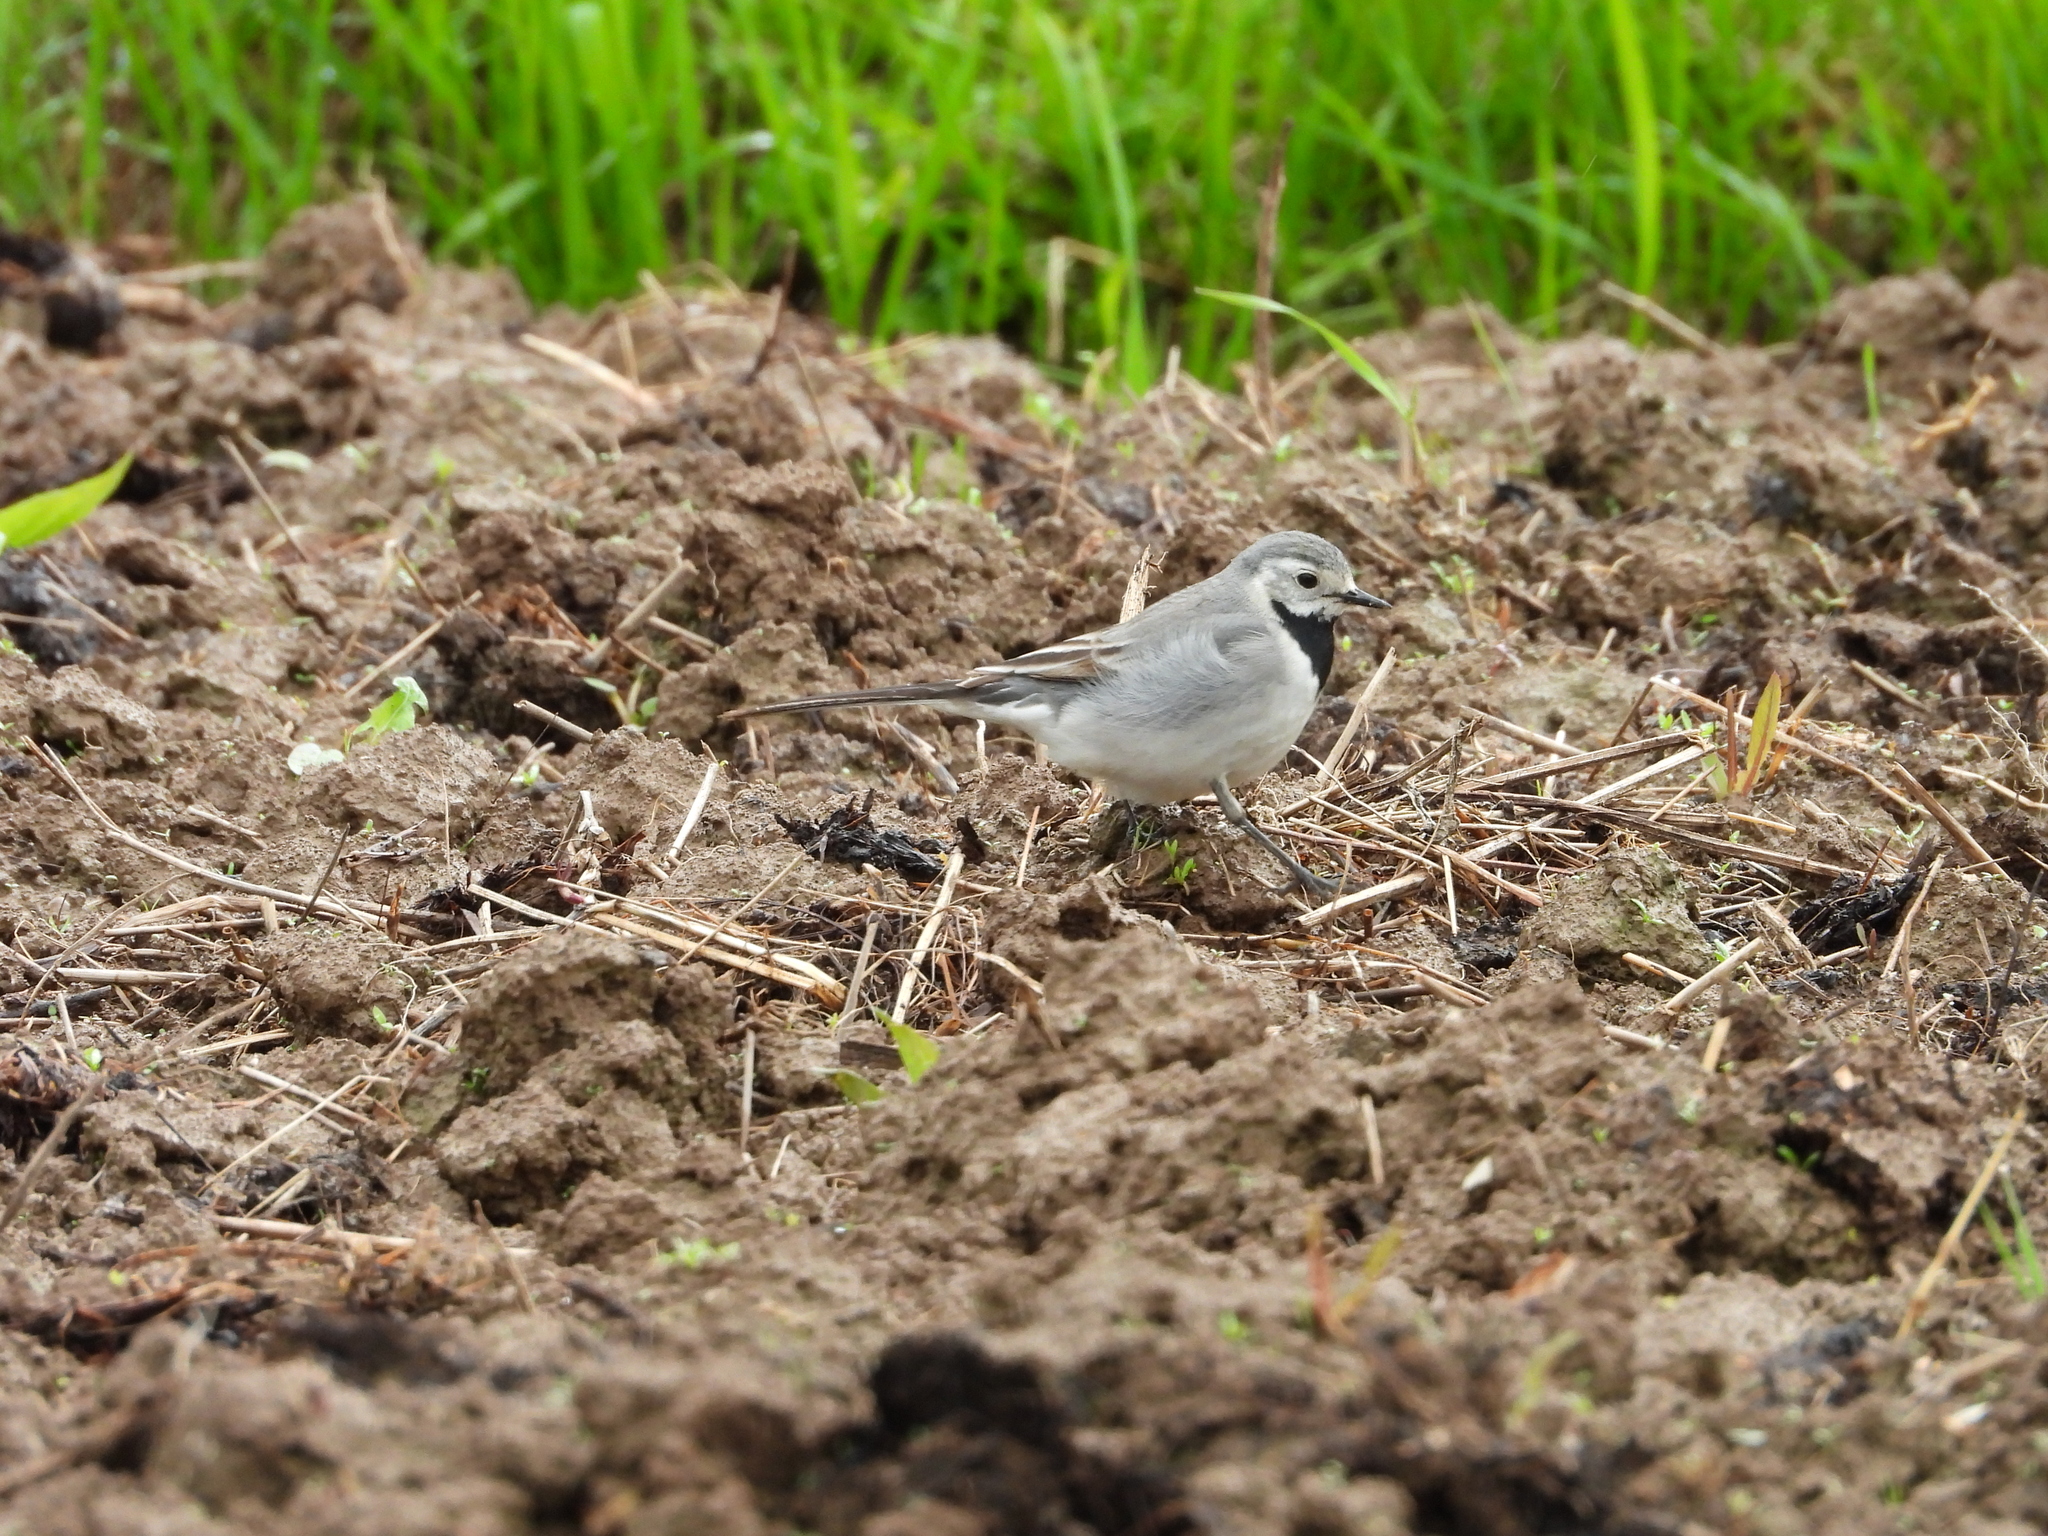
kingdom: Animalia
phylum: Chordata
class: Aves
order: Passeriformes
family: Motacillidae
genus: Motacilla
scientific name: Motacilla alba
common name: White wagtail
